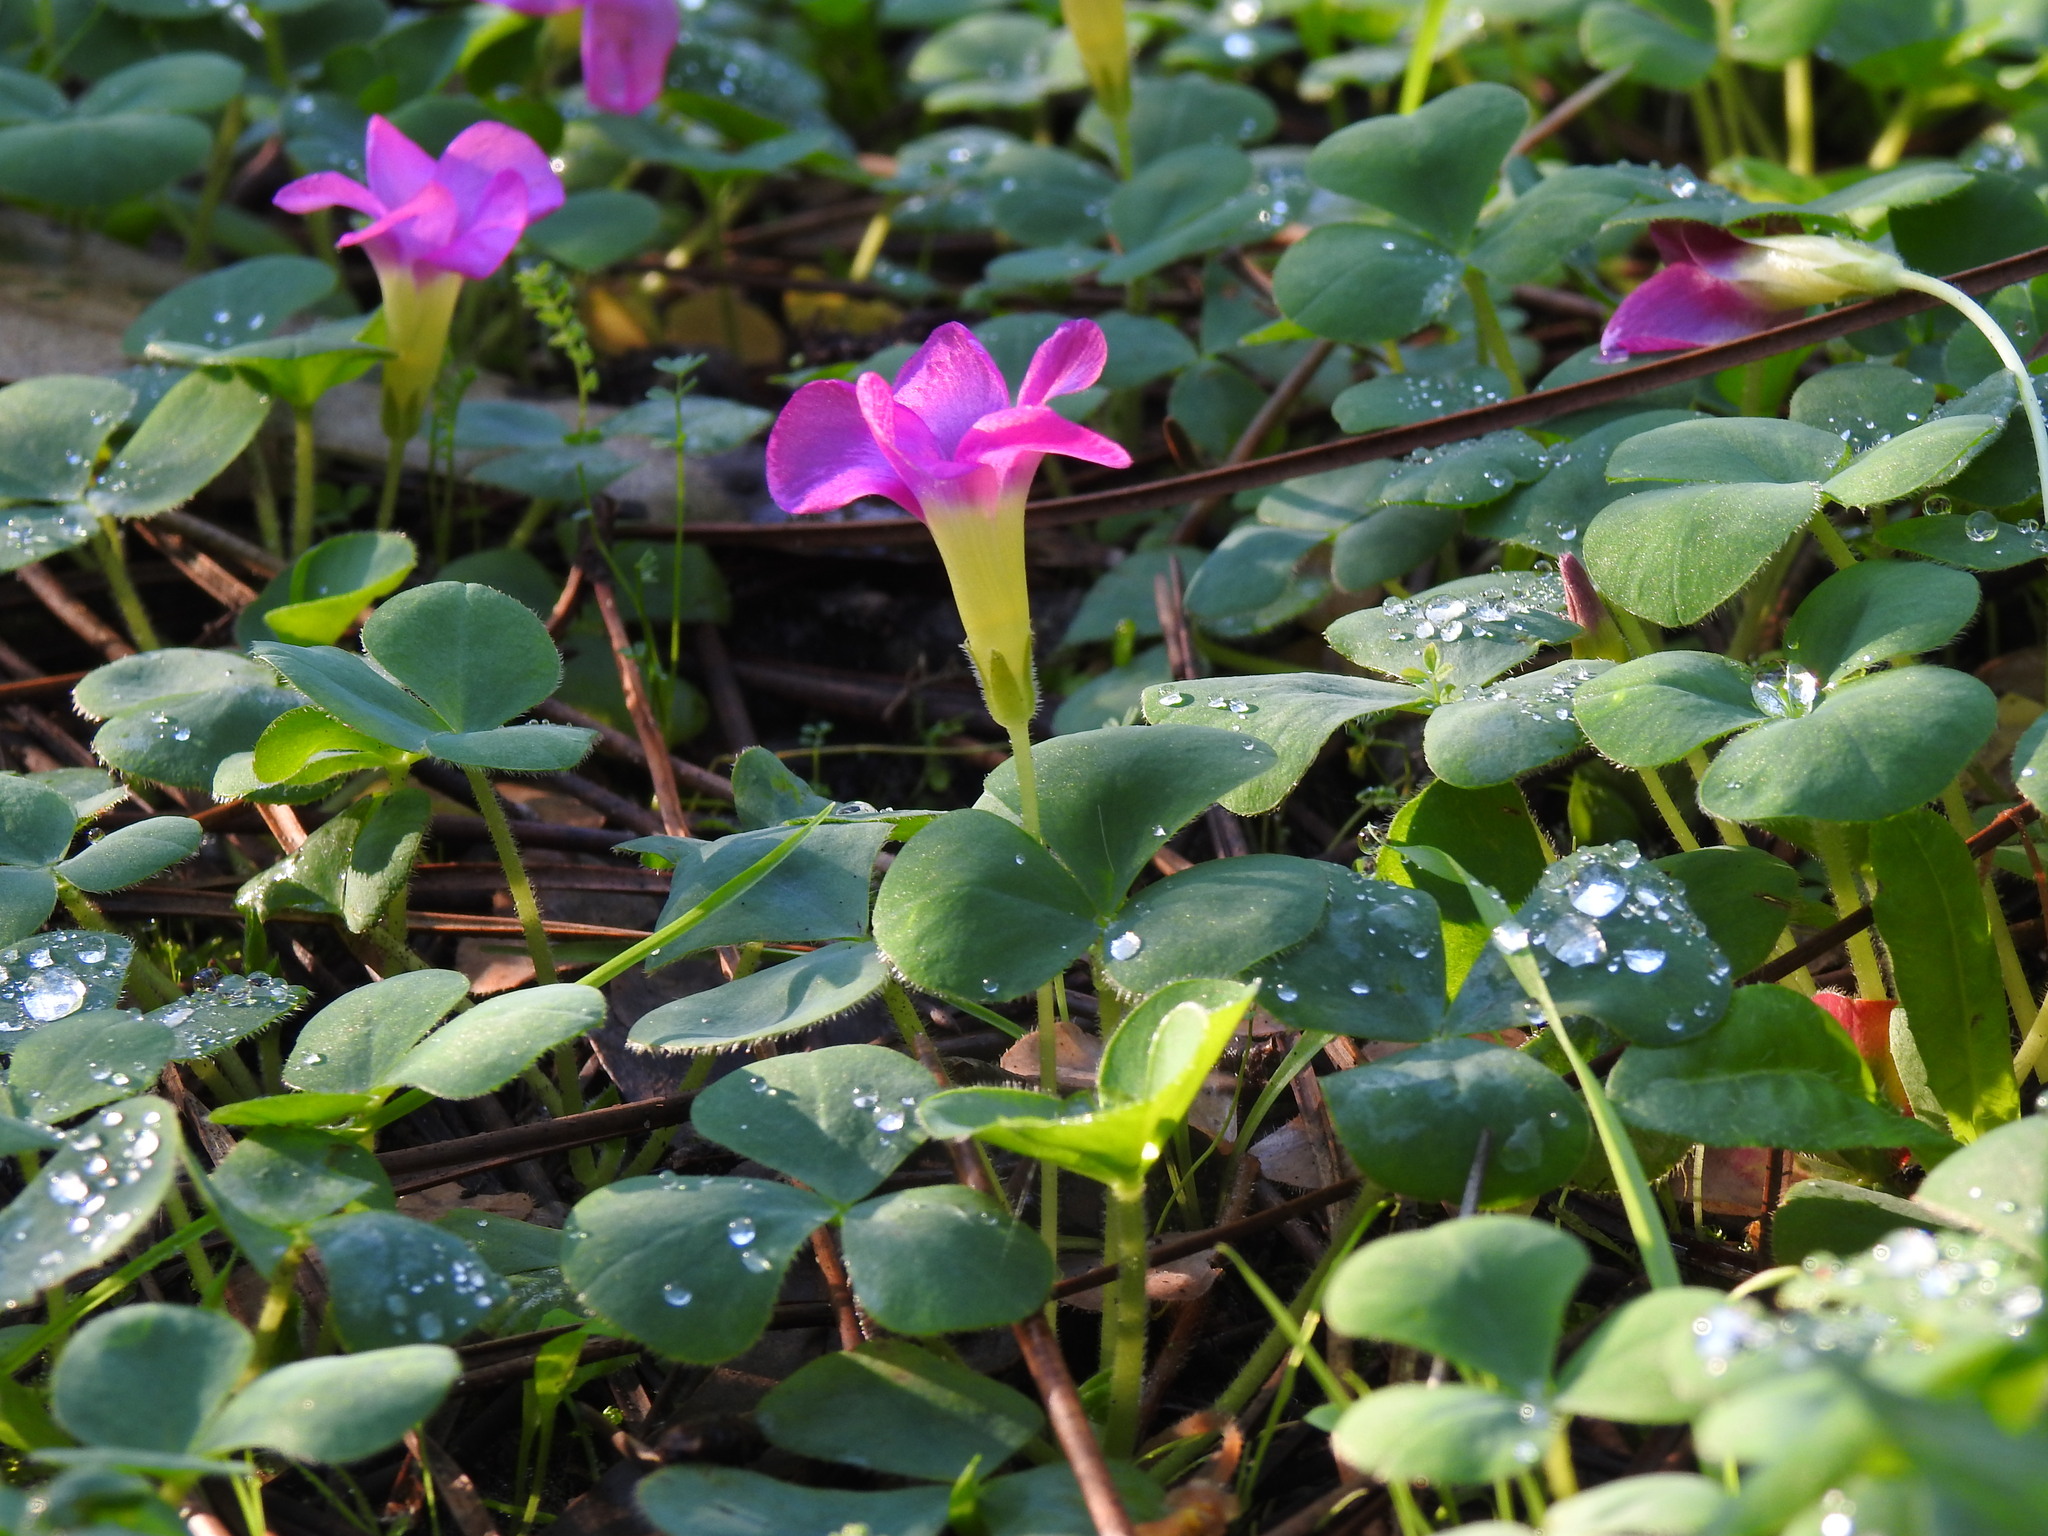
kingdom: Plantae
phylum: Tracheophyta
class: Magnoliopsida
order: Oxalidales
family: Oxalidaceae
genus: Oxalis
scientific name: Oxalis purpurea
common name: Purple woodsorrel
